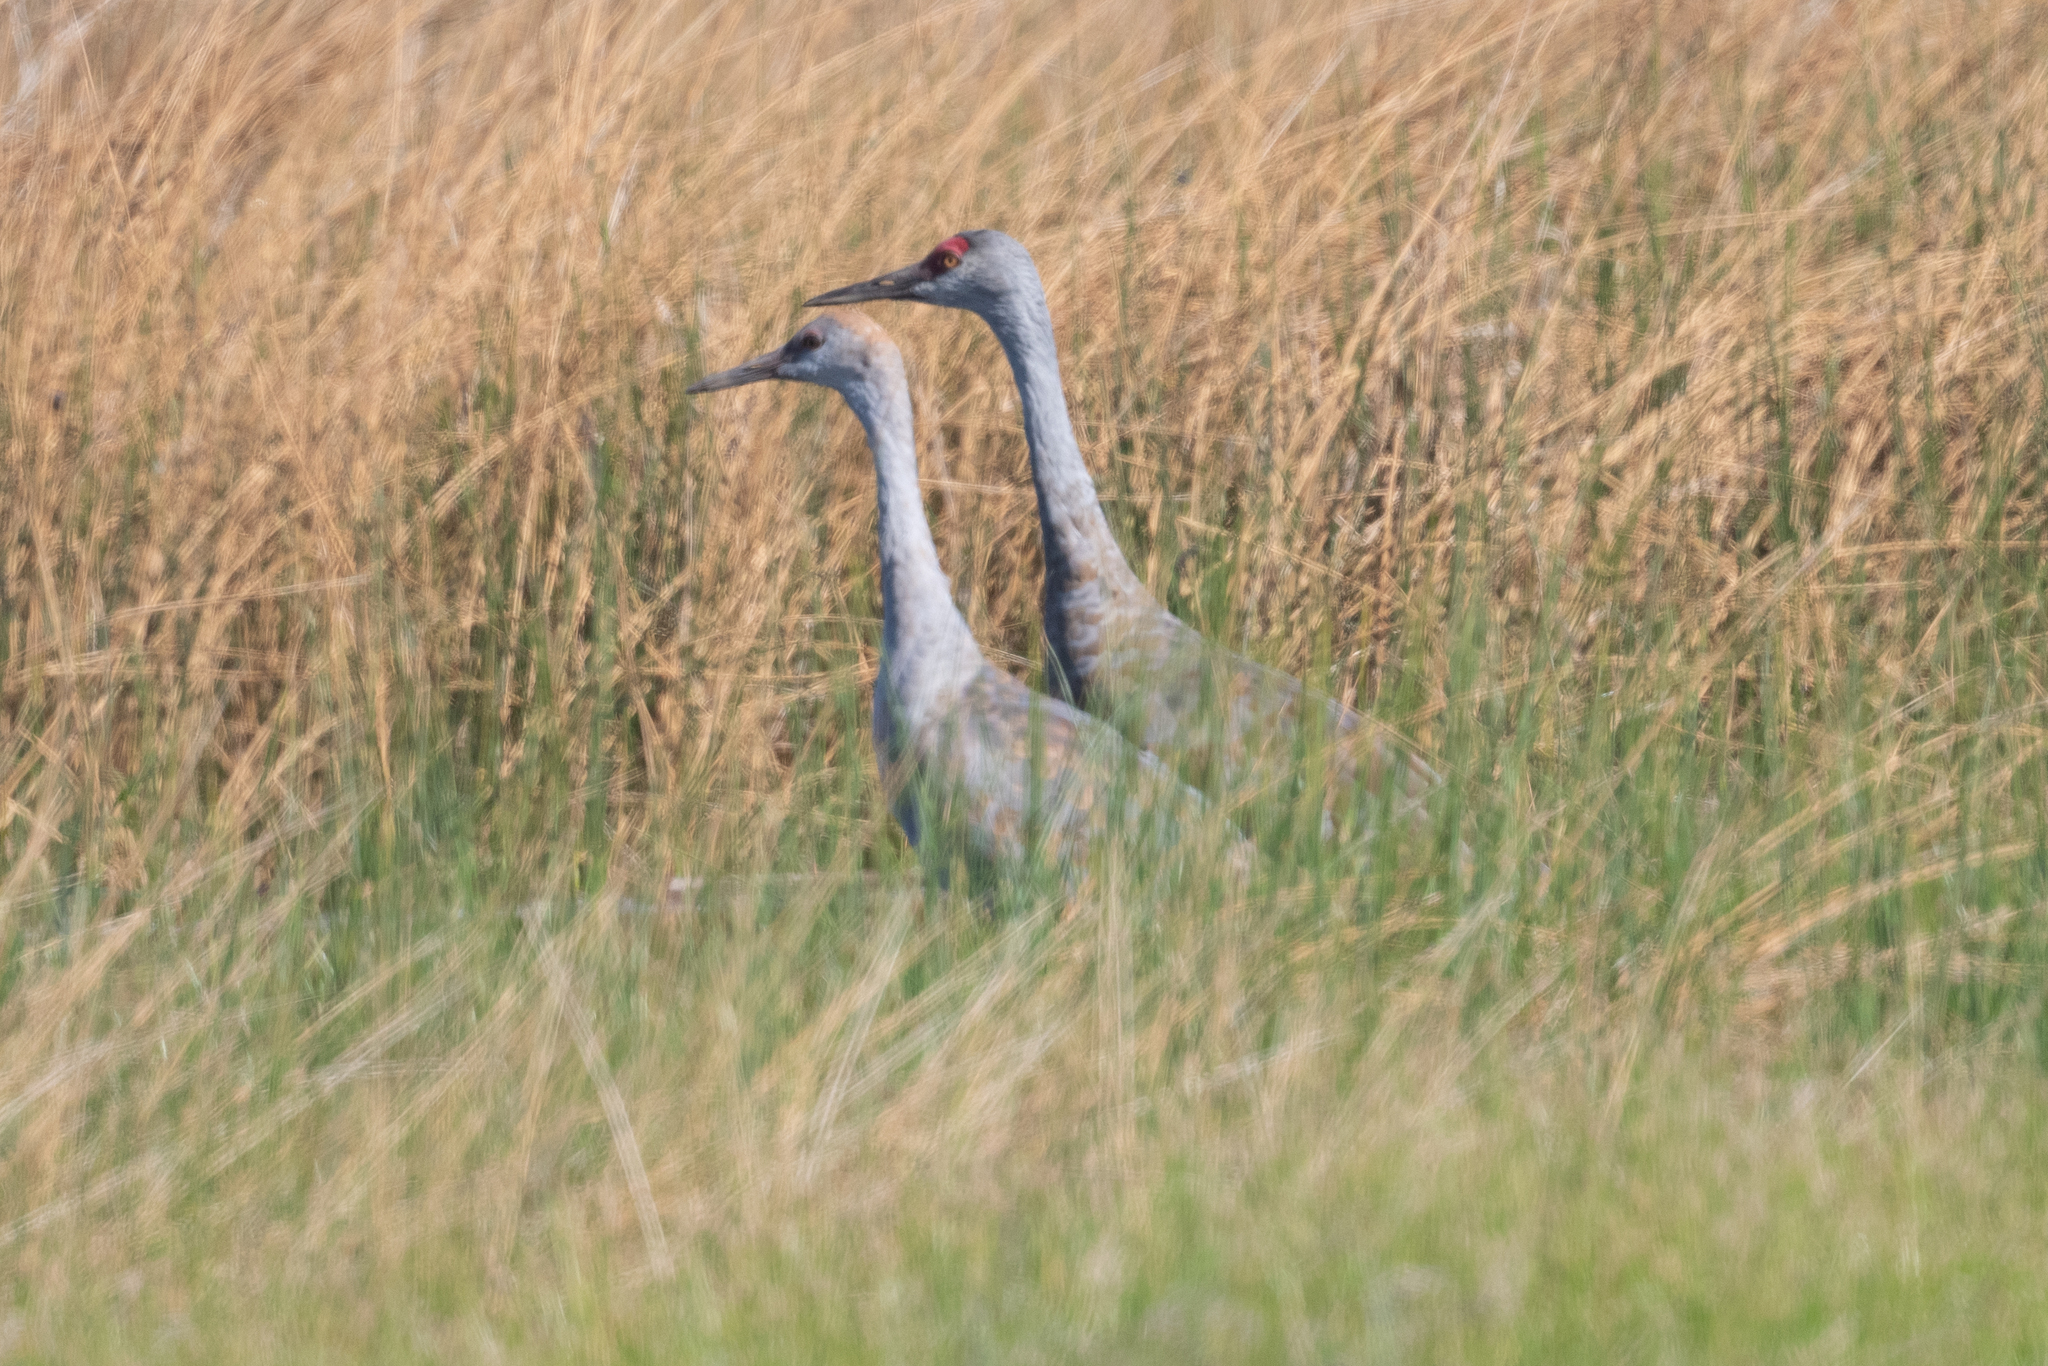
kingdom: Animalia
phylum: Chordata
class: Aves
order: Gruiformes
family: Gruidae
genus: Grus
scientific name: Grus canadensis
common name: Sandhill crane
